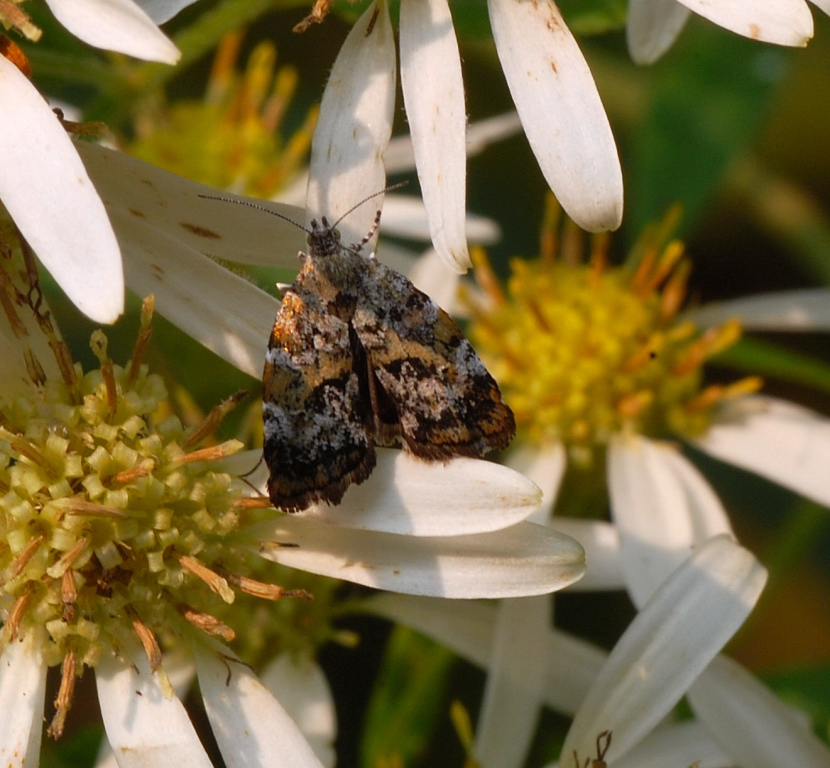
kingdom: Animalia
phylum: Arthropoda
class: Insecta
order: Lepidoptera
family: Choreutidae
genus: Choreutis
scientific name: Choreutis diana
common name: Inverness twitcher
